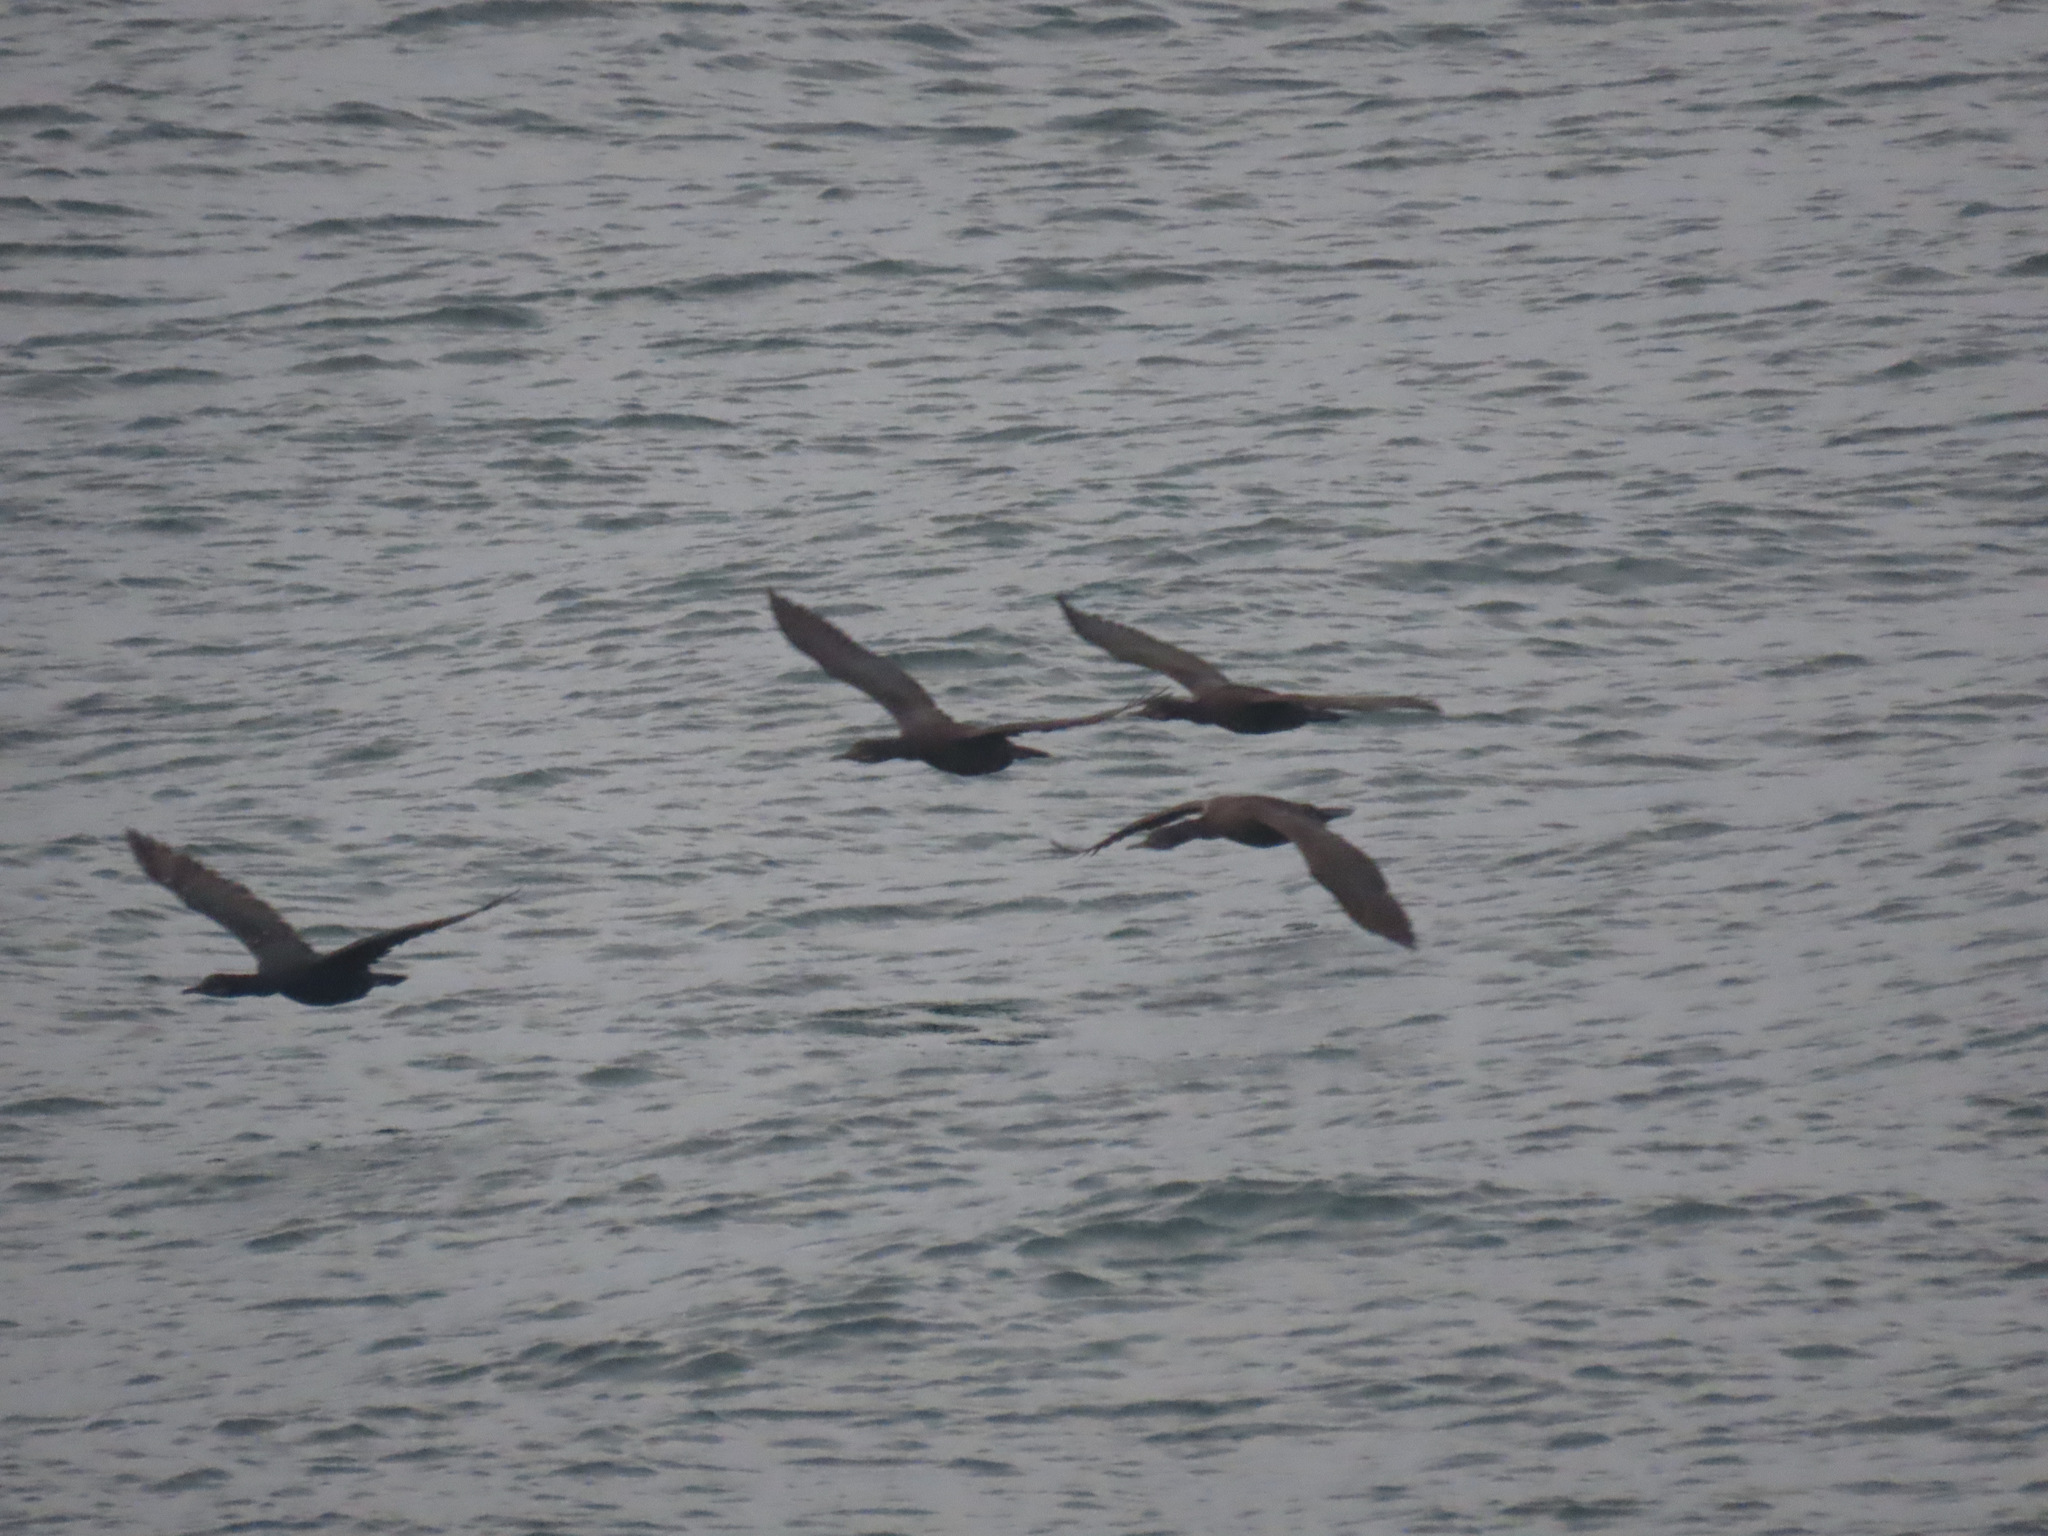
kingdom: Animalia
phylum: Chordata
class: Aves
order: Suliformes
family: Phalacrocoracidae
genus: Urile
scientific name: Urile penicillatus
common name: Brandt's cormorant
